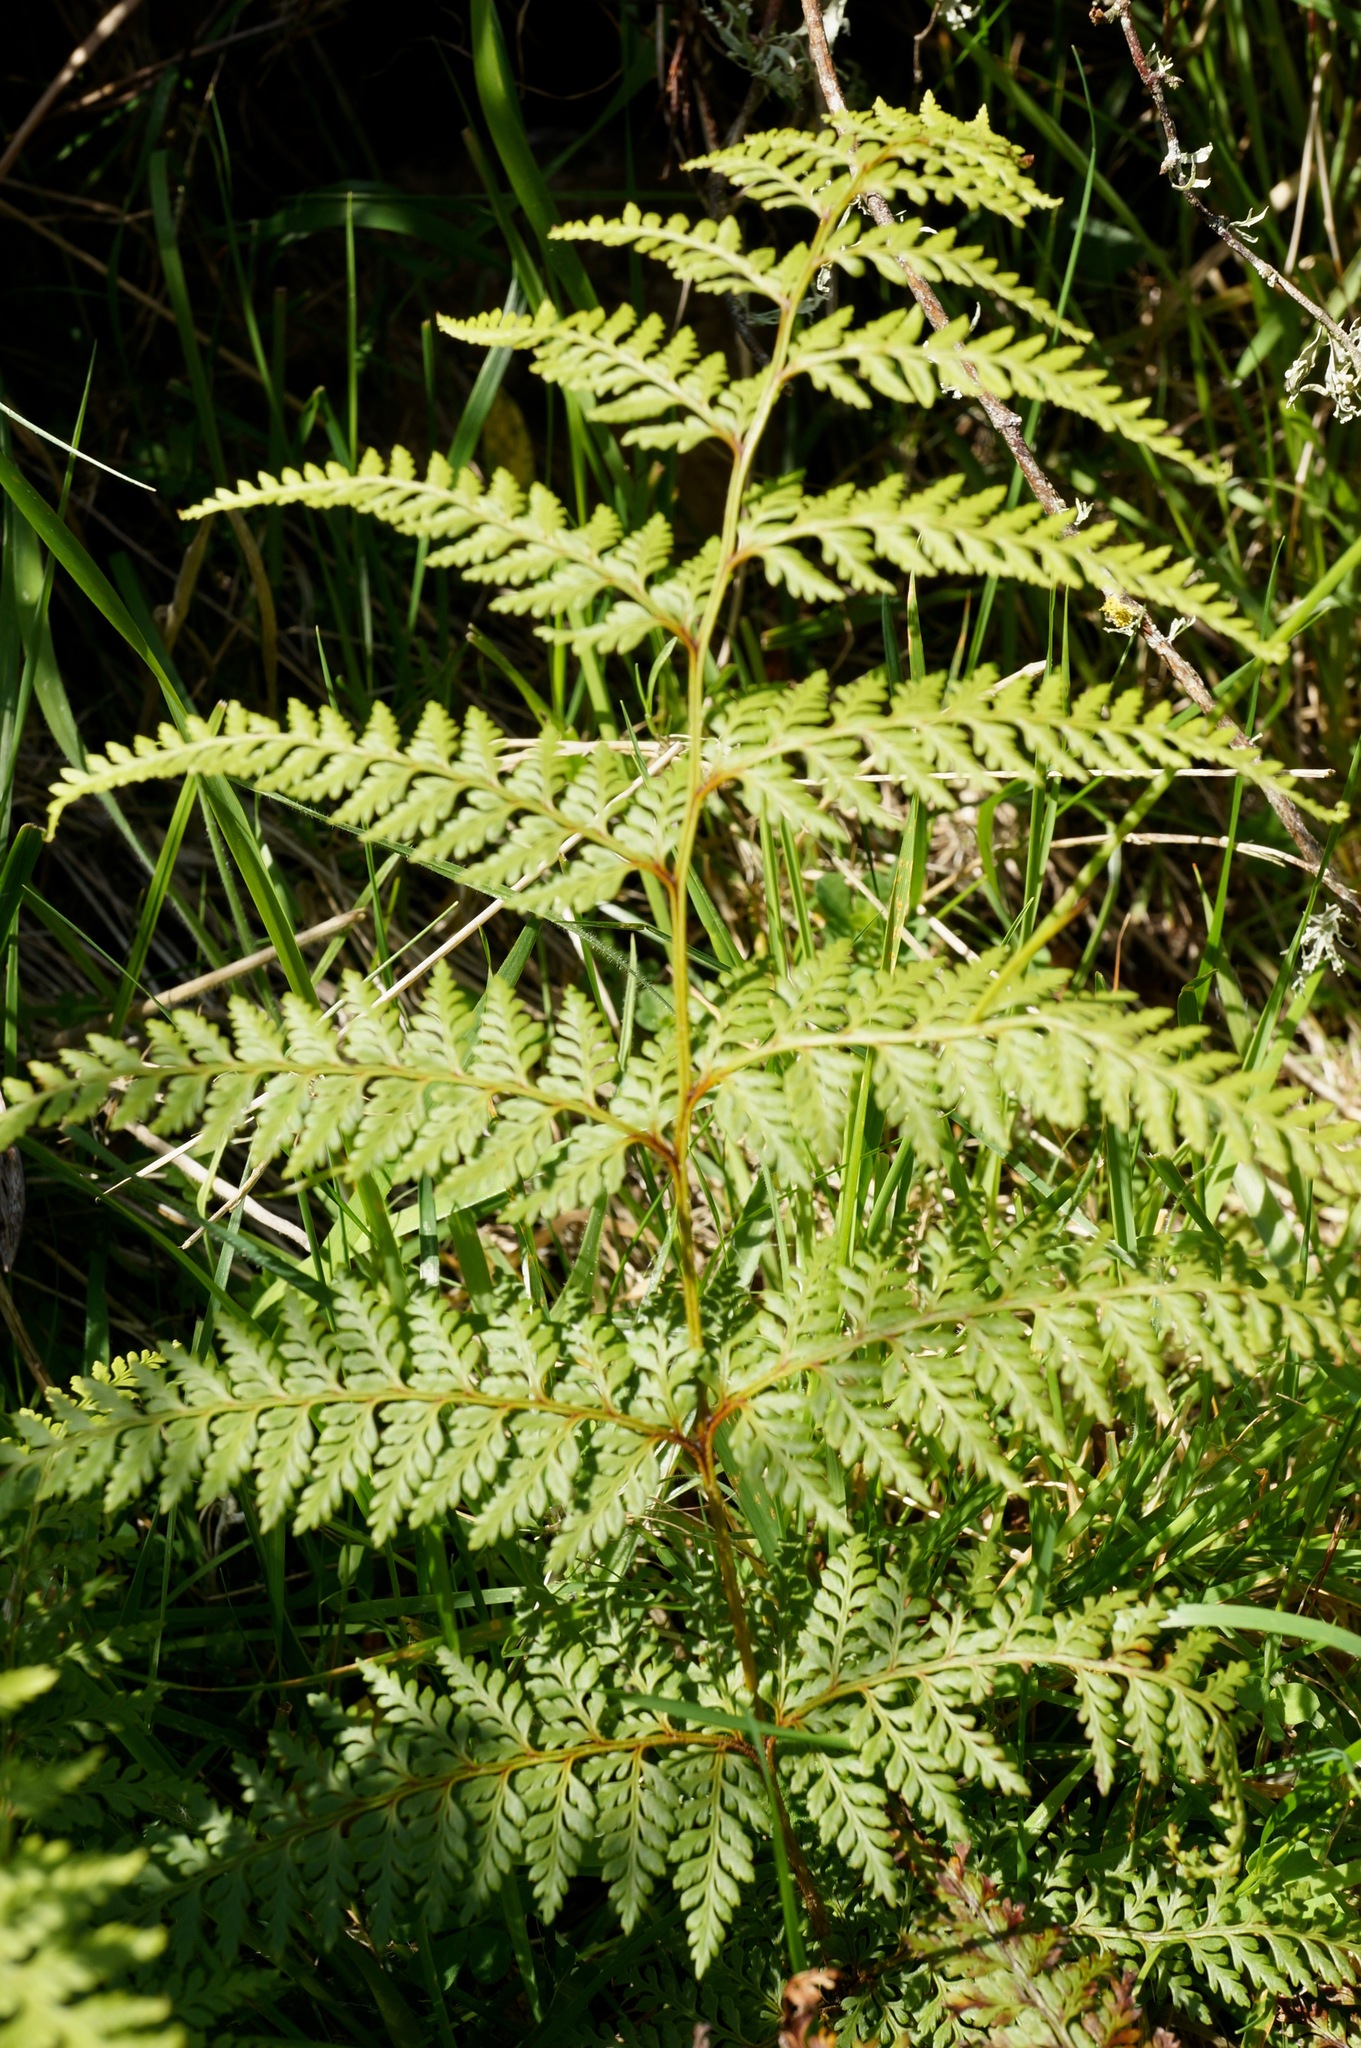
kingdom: Plantae
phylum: Tracheophyta
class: Polypodiopsida
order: Polypodiales
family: Dennstaedtiaceae
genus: Paesia
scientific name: Paesia scaberula
